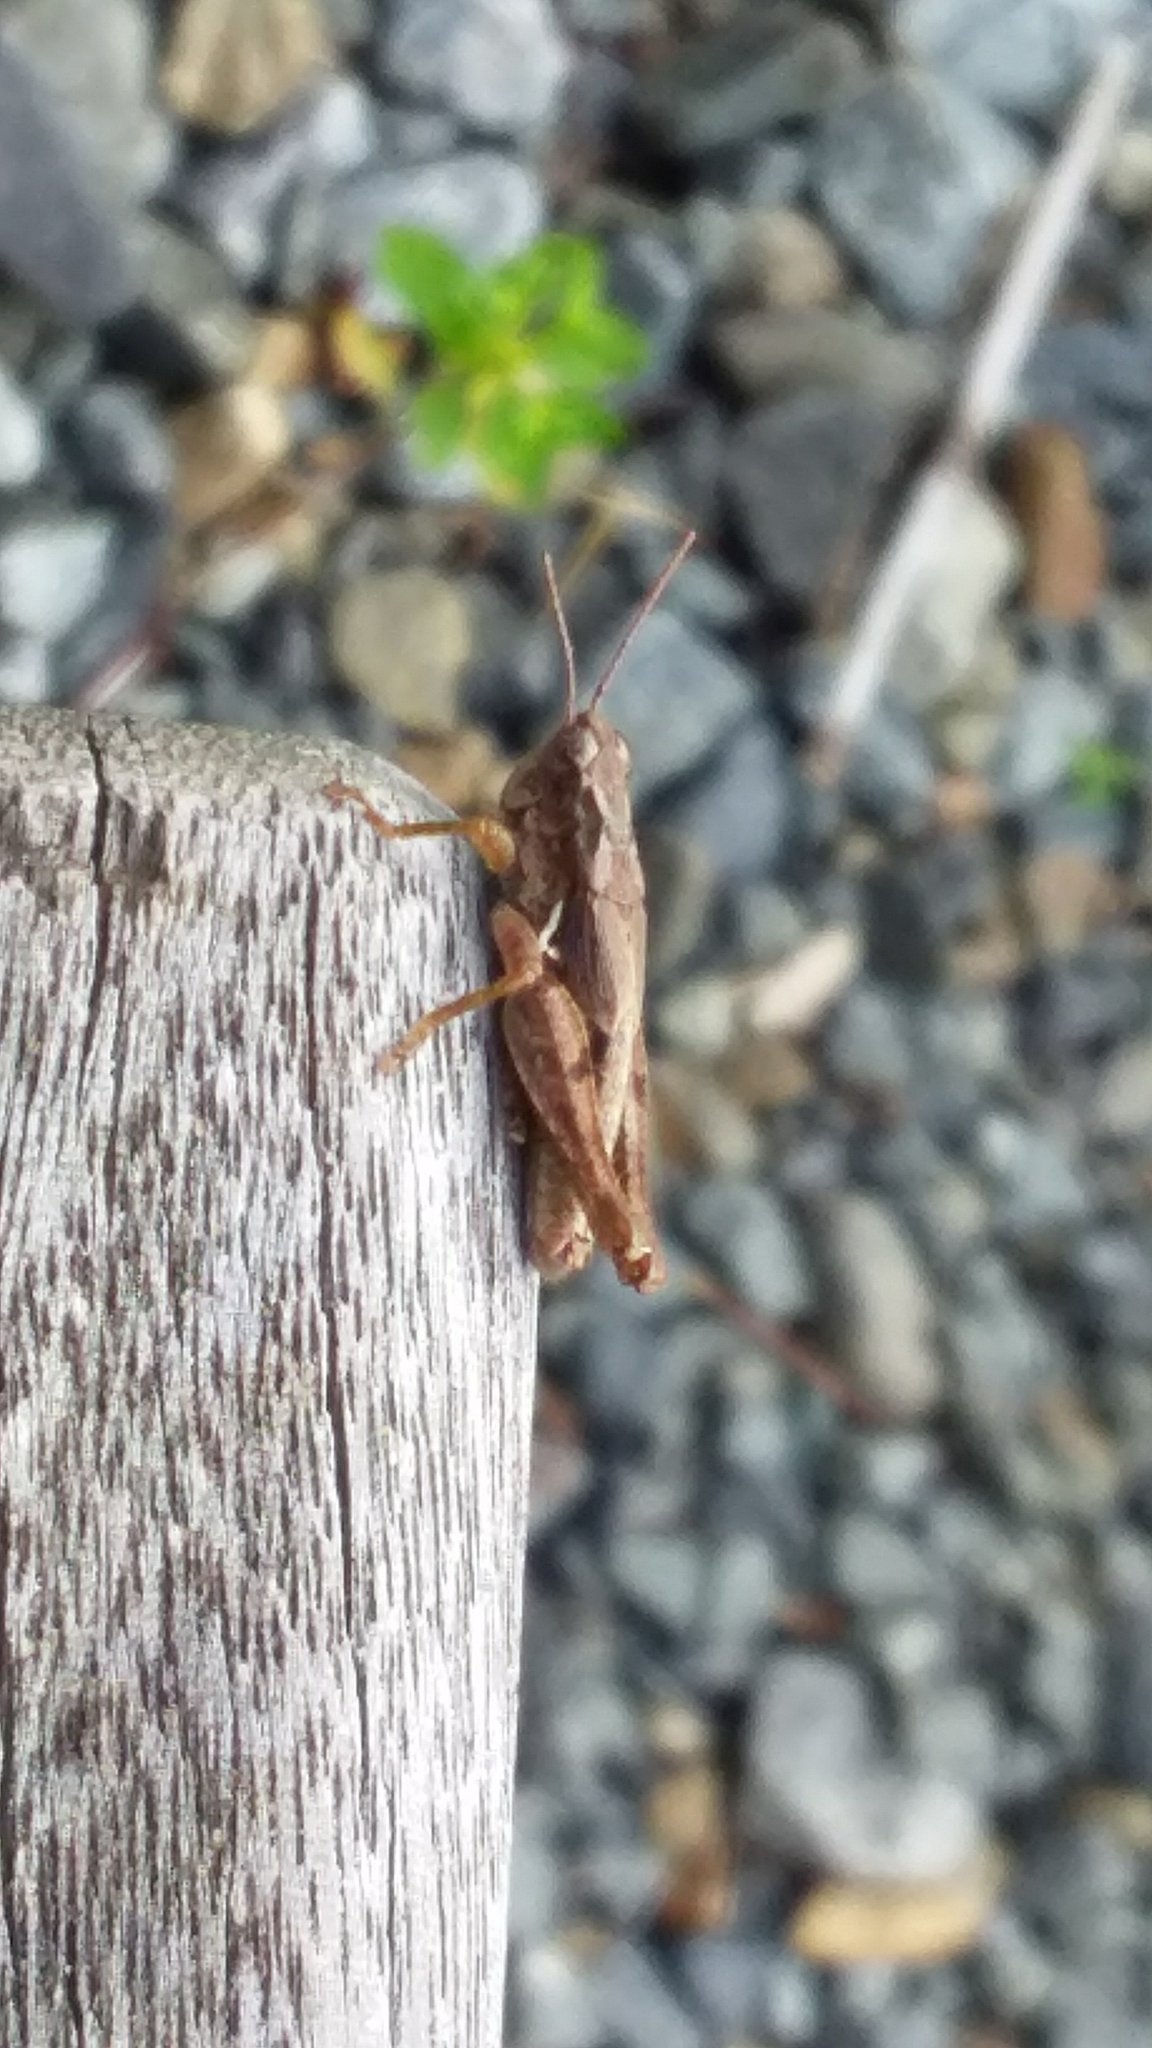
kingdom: Animalia
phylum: Arthropoda
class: Insecta
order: Orthoptera
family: Acrididae
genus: Phaulacridium
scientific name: Phaulacridium marginale
